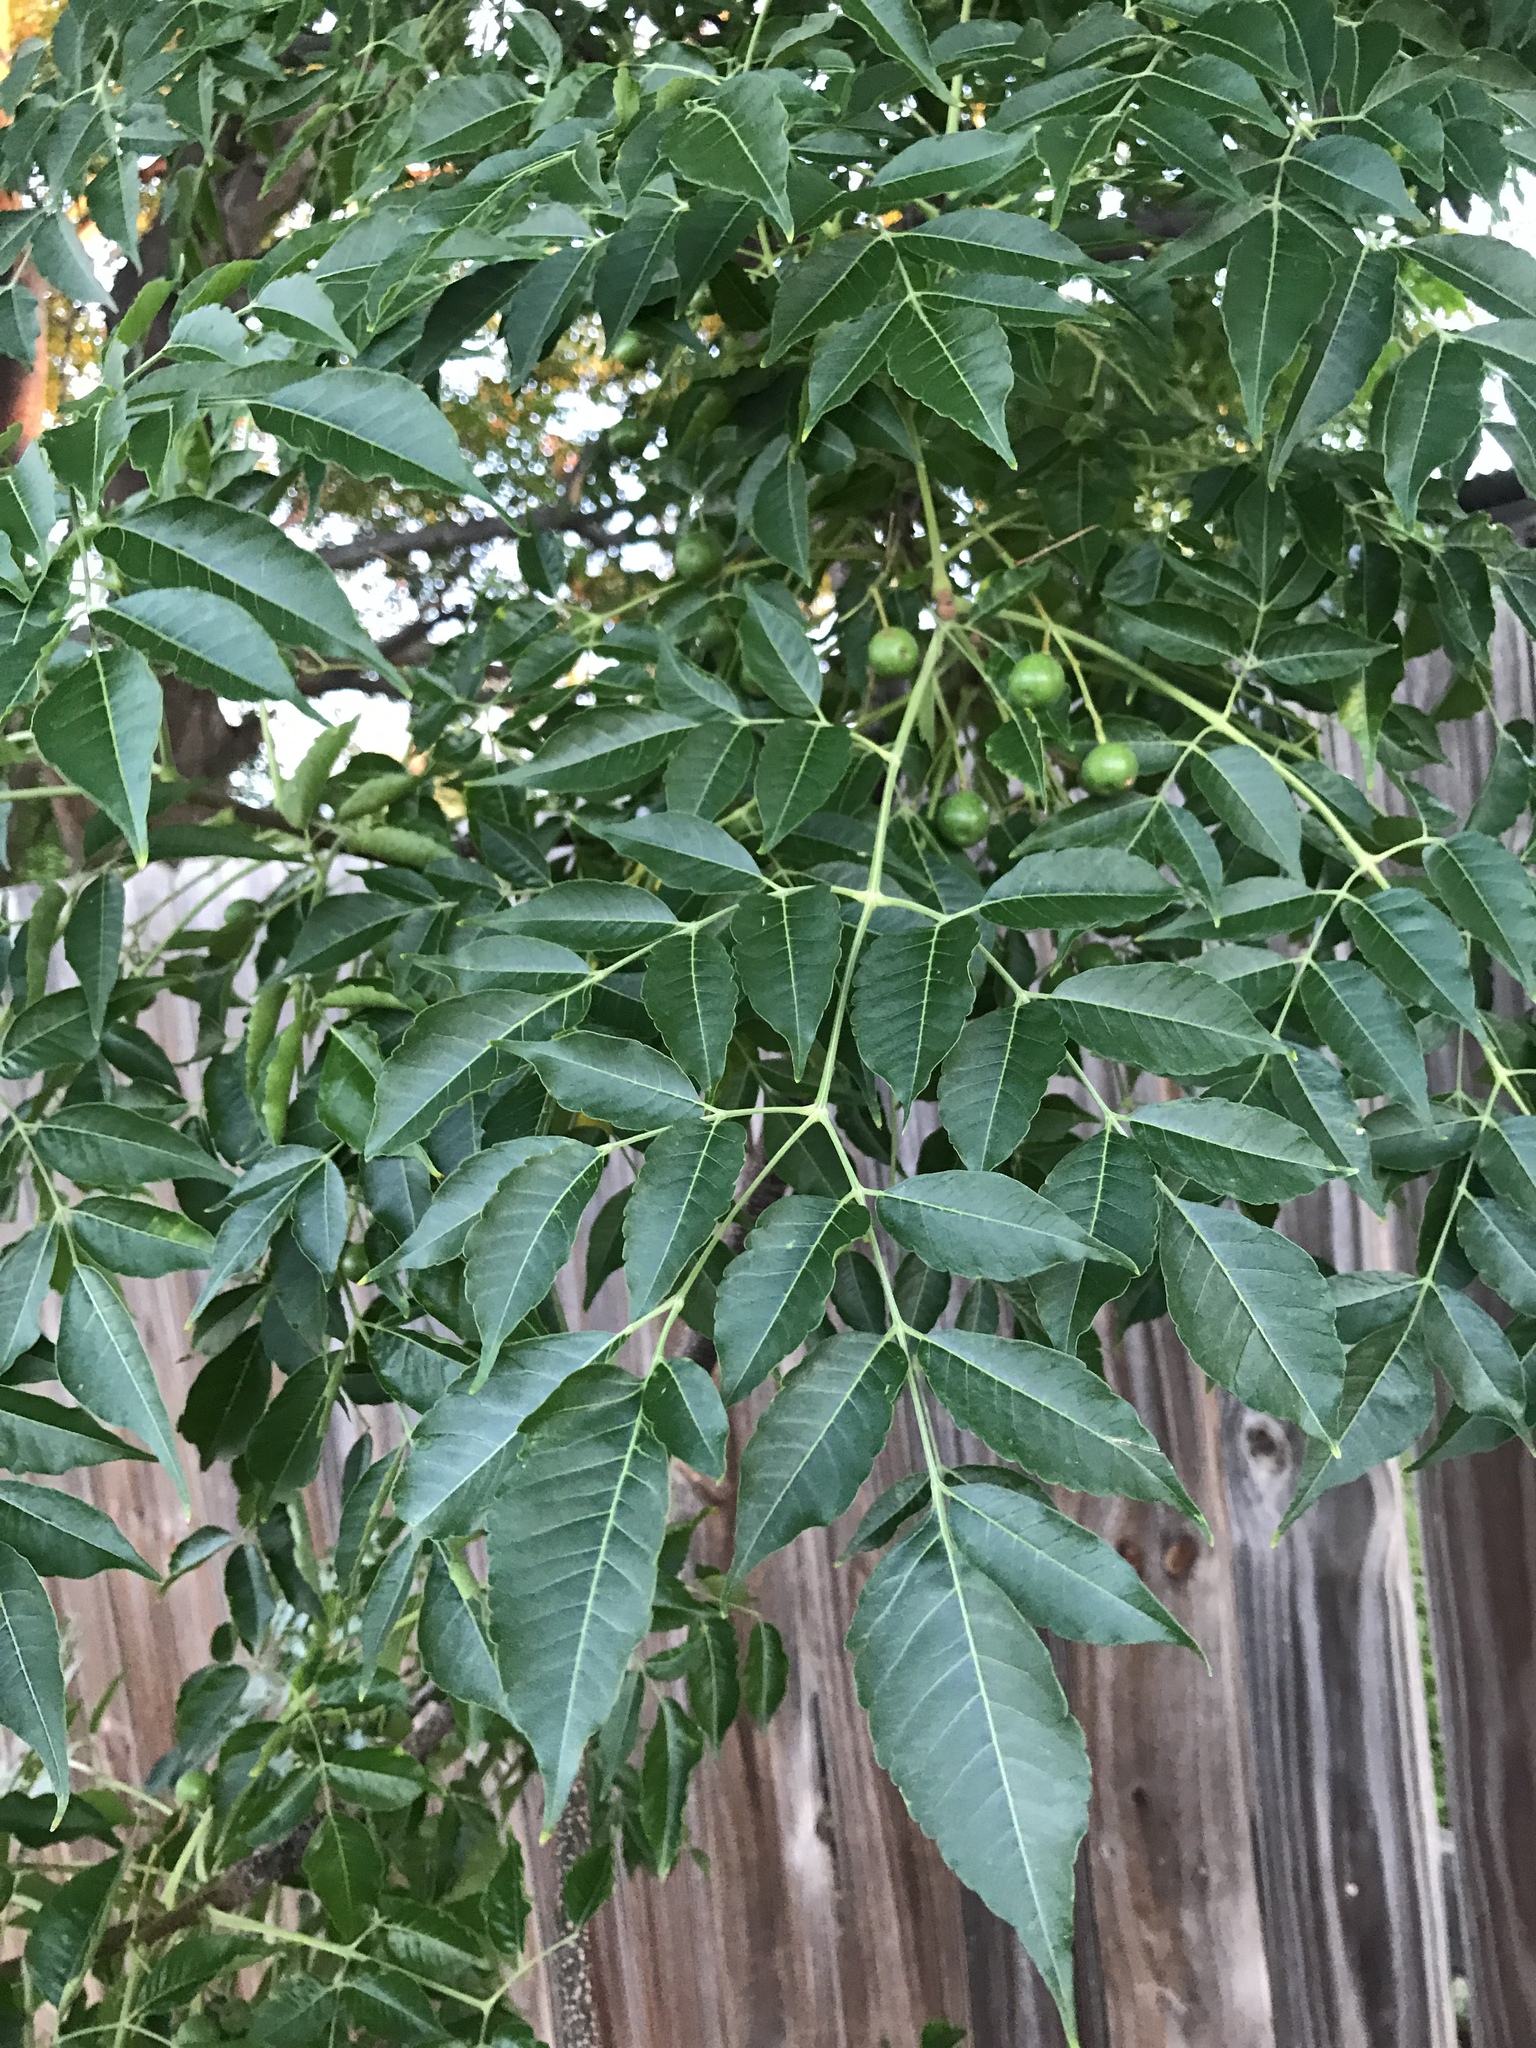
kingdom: Plantae
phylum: Tracheophyta
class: Magnoliopsida
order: Sapindales
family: Meliaceae
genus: Melia
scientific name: Melia azedarach
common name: Chinaberrytree
